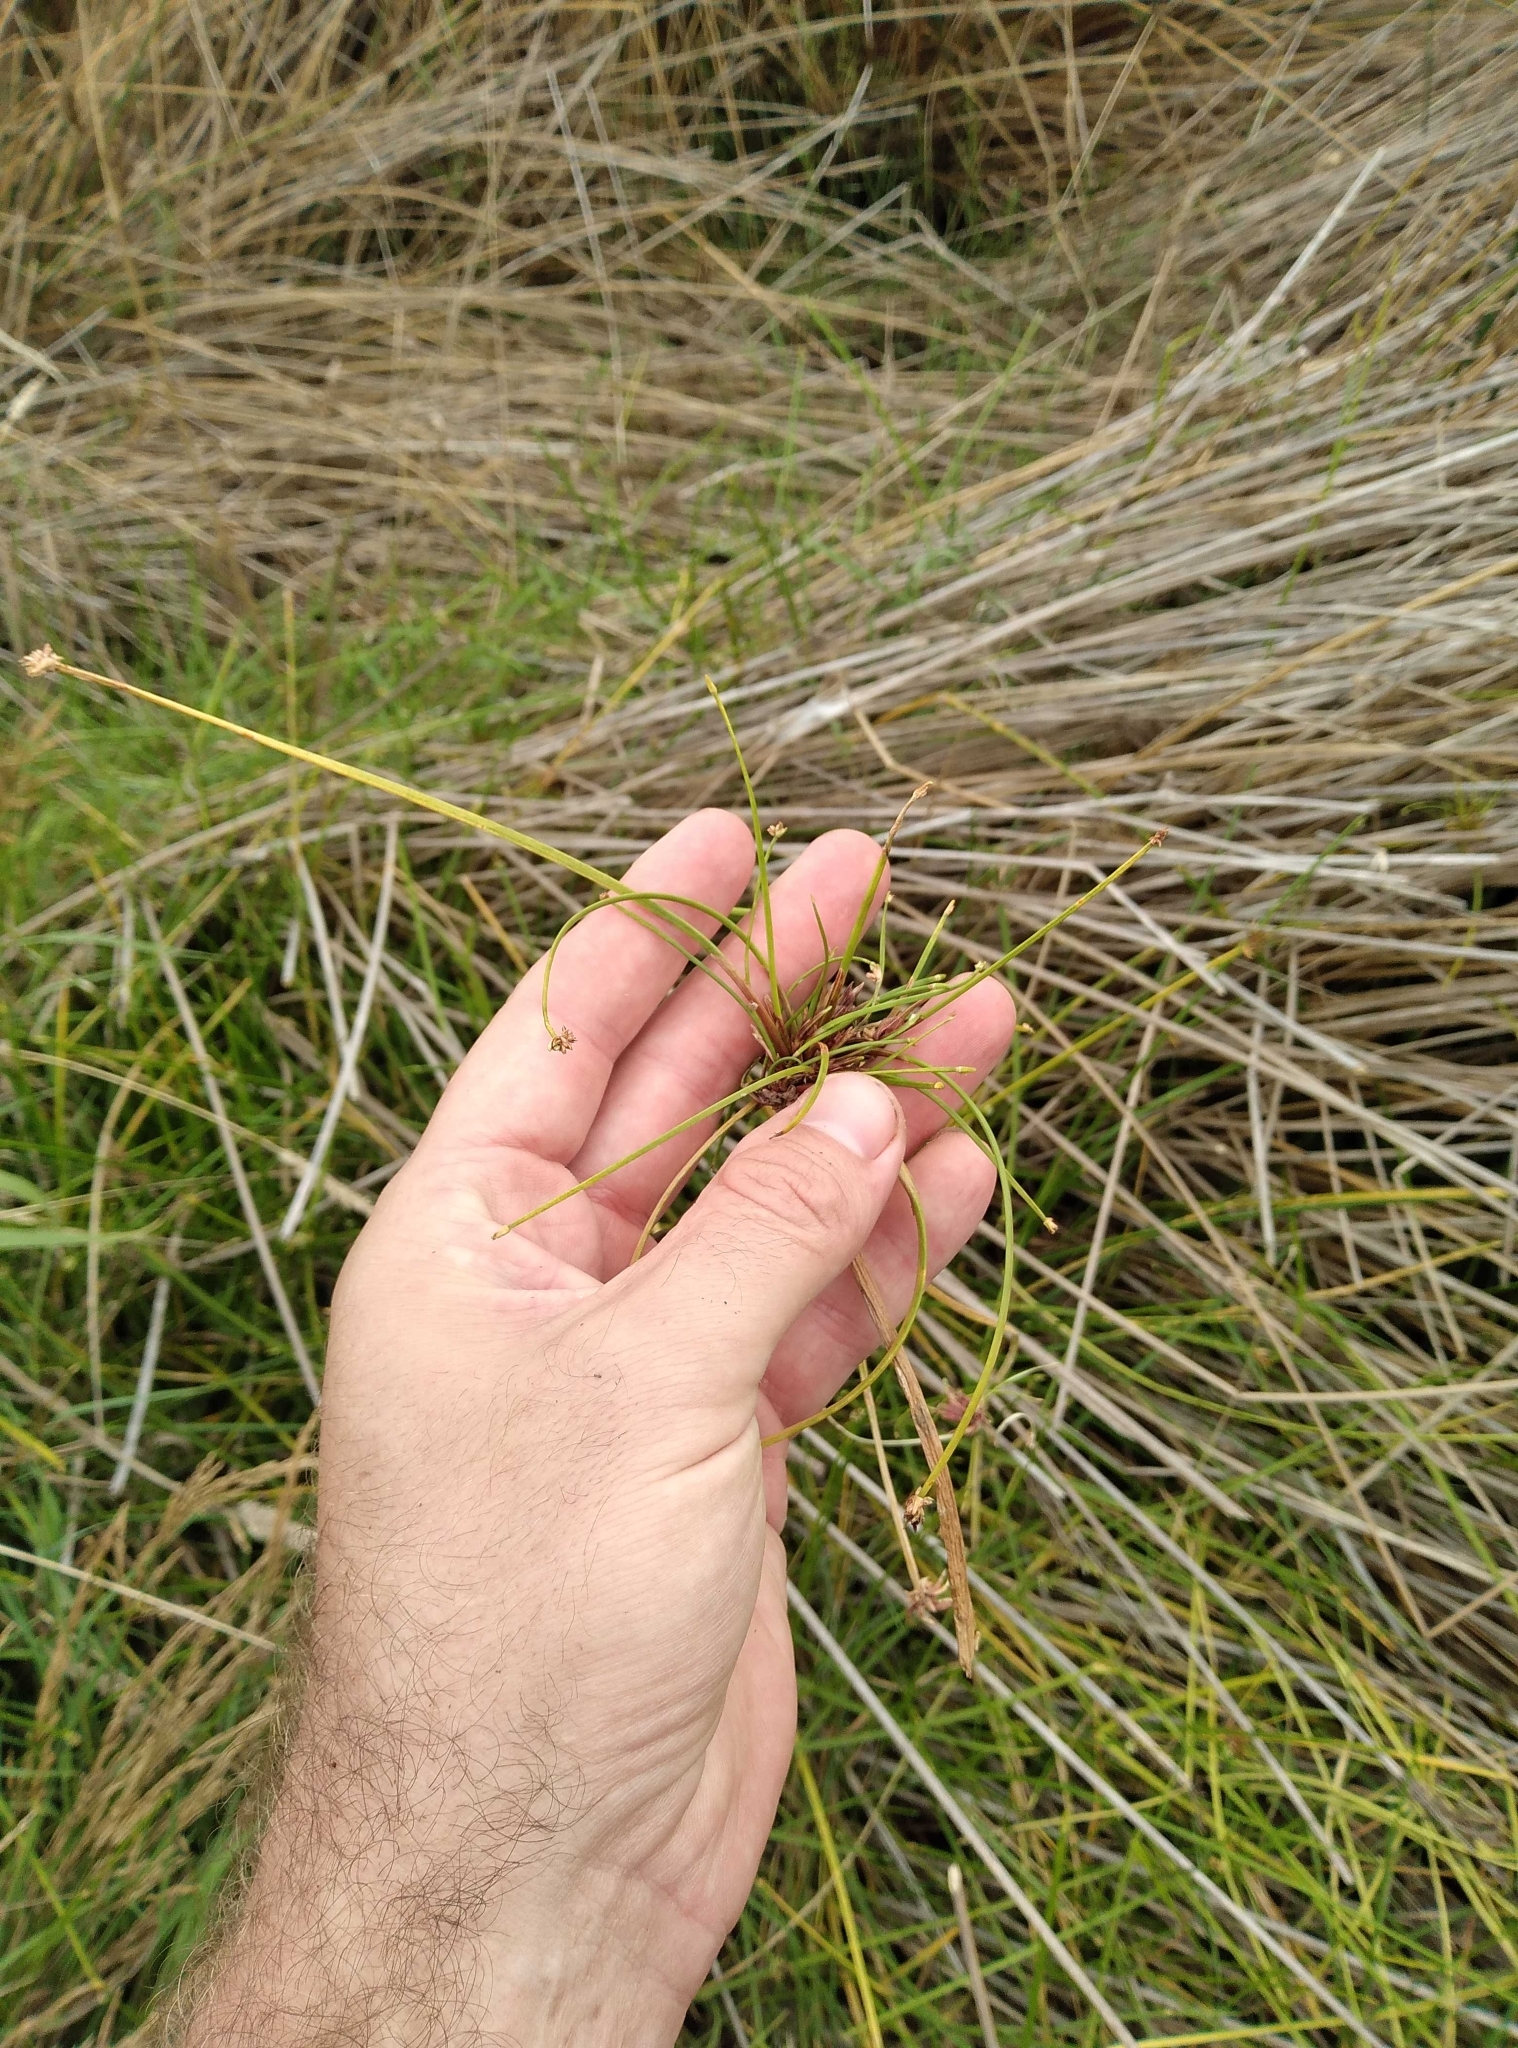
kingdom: Plantae
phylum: Tracheophyta
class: Liliopsida
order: Poales
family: Cyperaceae
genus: Isolepis
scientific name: Isolepis prolifera
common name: Proliferating bulrush
